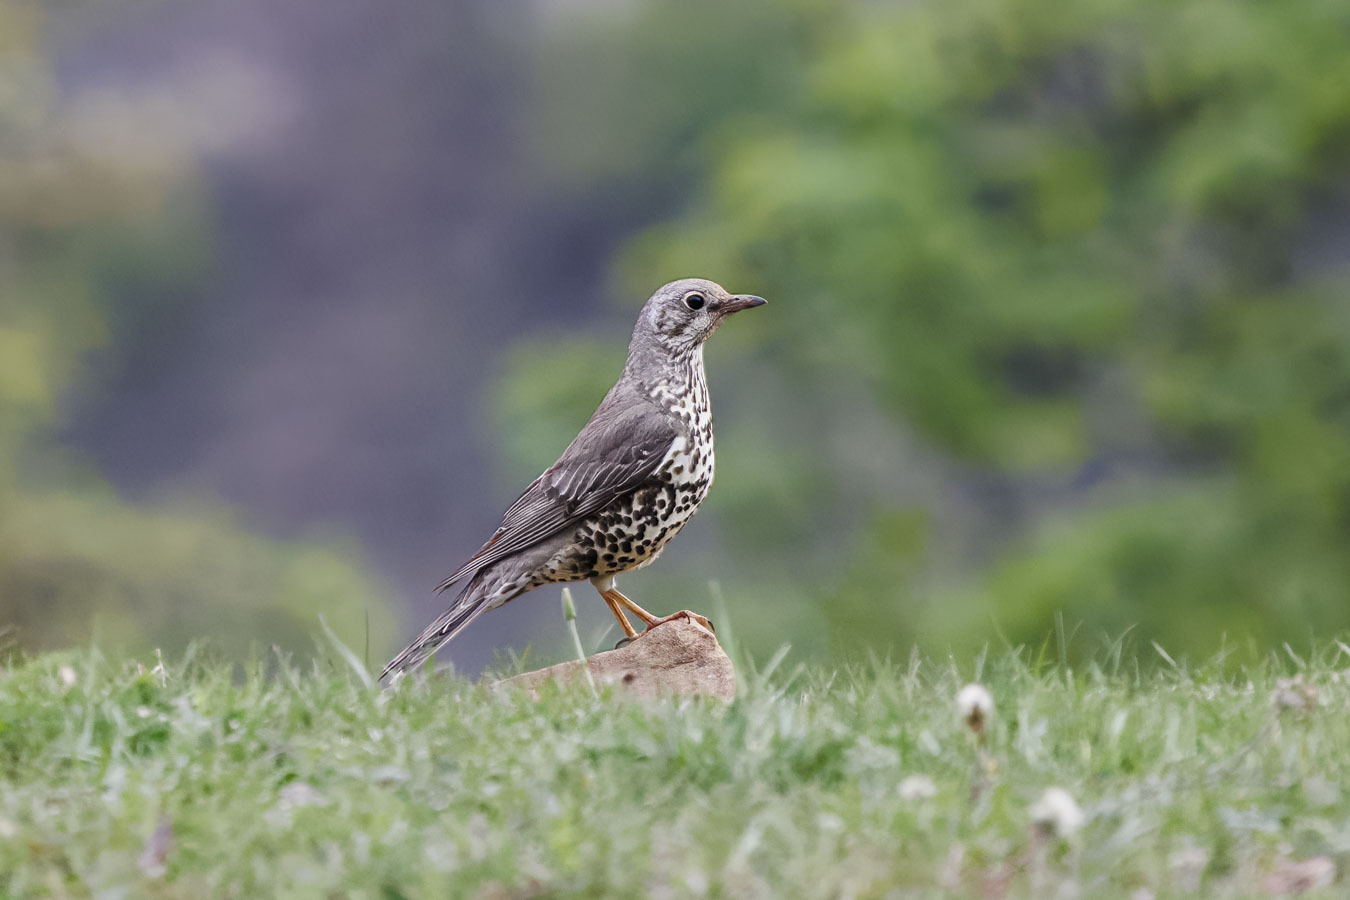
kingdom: Animalia
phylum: Chordata
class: Aves
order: Passeriformes
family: Turdidae
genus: Turdus
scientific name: Turdus viscivorus
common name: Mistle thrush
